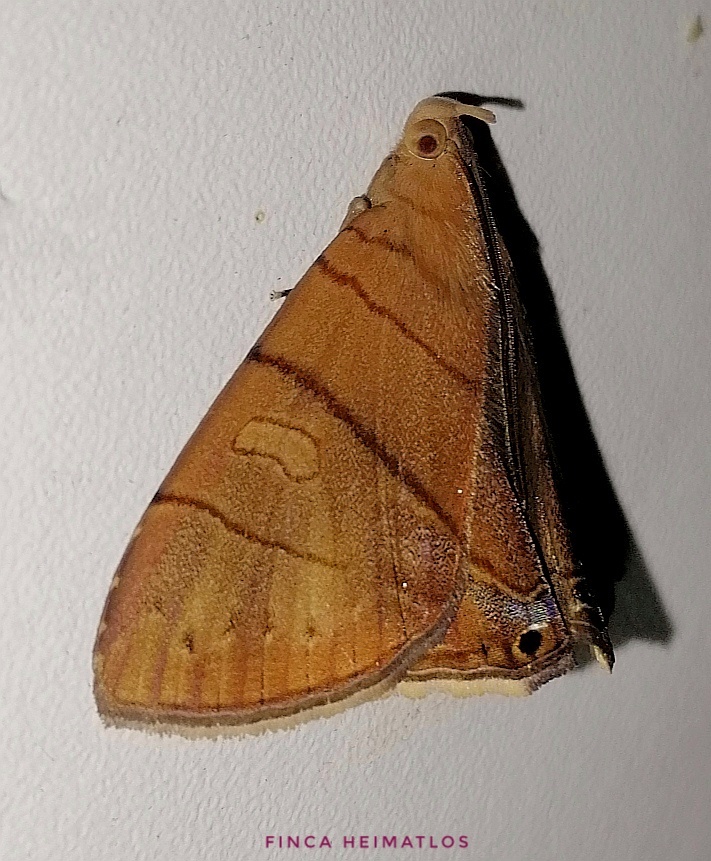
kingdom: Animalia
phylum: Arthropoda
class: Insecta
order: Lepidoptera
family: Erebidae
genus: Dyomyx
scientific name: Dyomyx inferior
